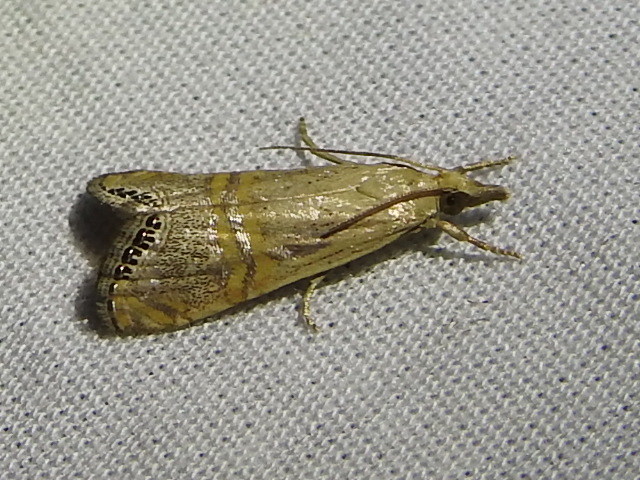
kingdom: Animalia
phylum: Arthropoda
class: Insecta
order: Lepidoptera
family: Crambidae
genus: Euchromius
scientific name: Euchromius ocellea
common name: Necklace veneer moth
